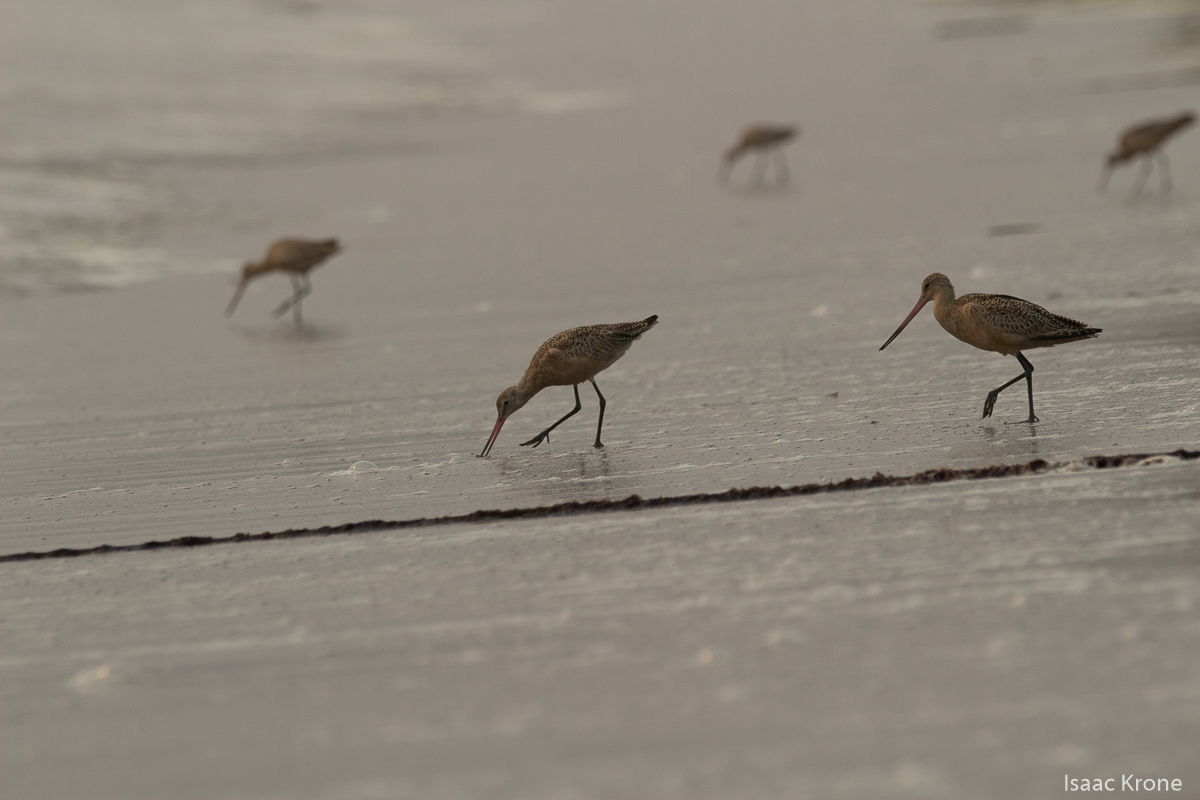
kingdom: Animalia
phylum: Chordata
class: Aves
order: Charadriiformes
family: Scolopacidae
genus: Limosa
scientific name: Limosa fedoa
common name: Marbled godwit
